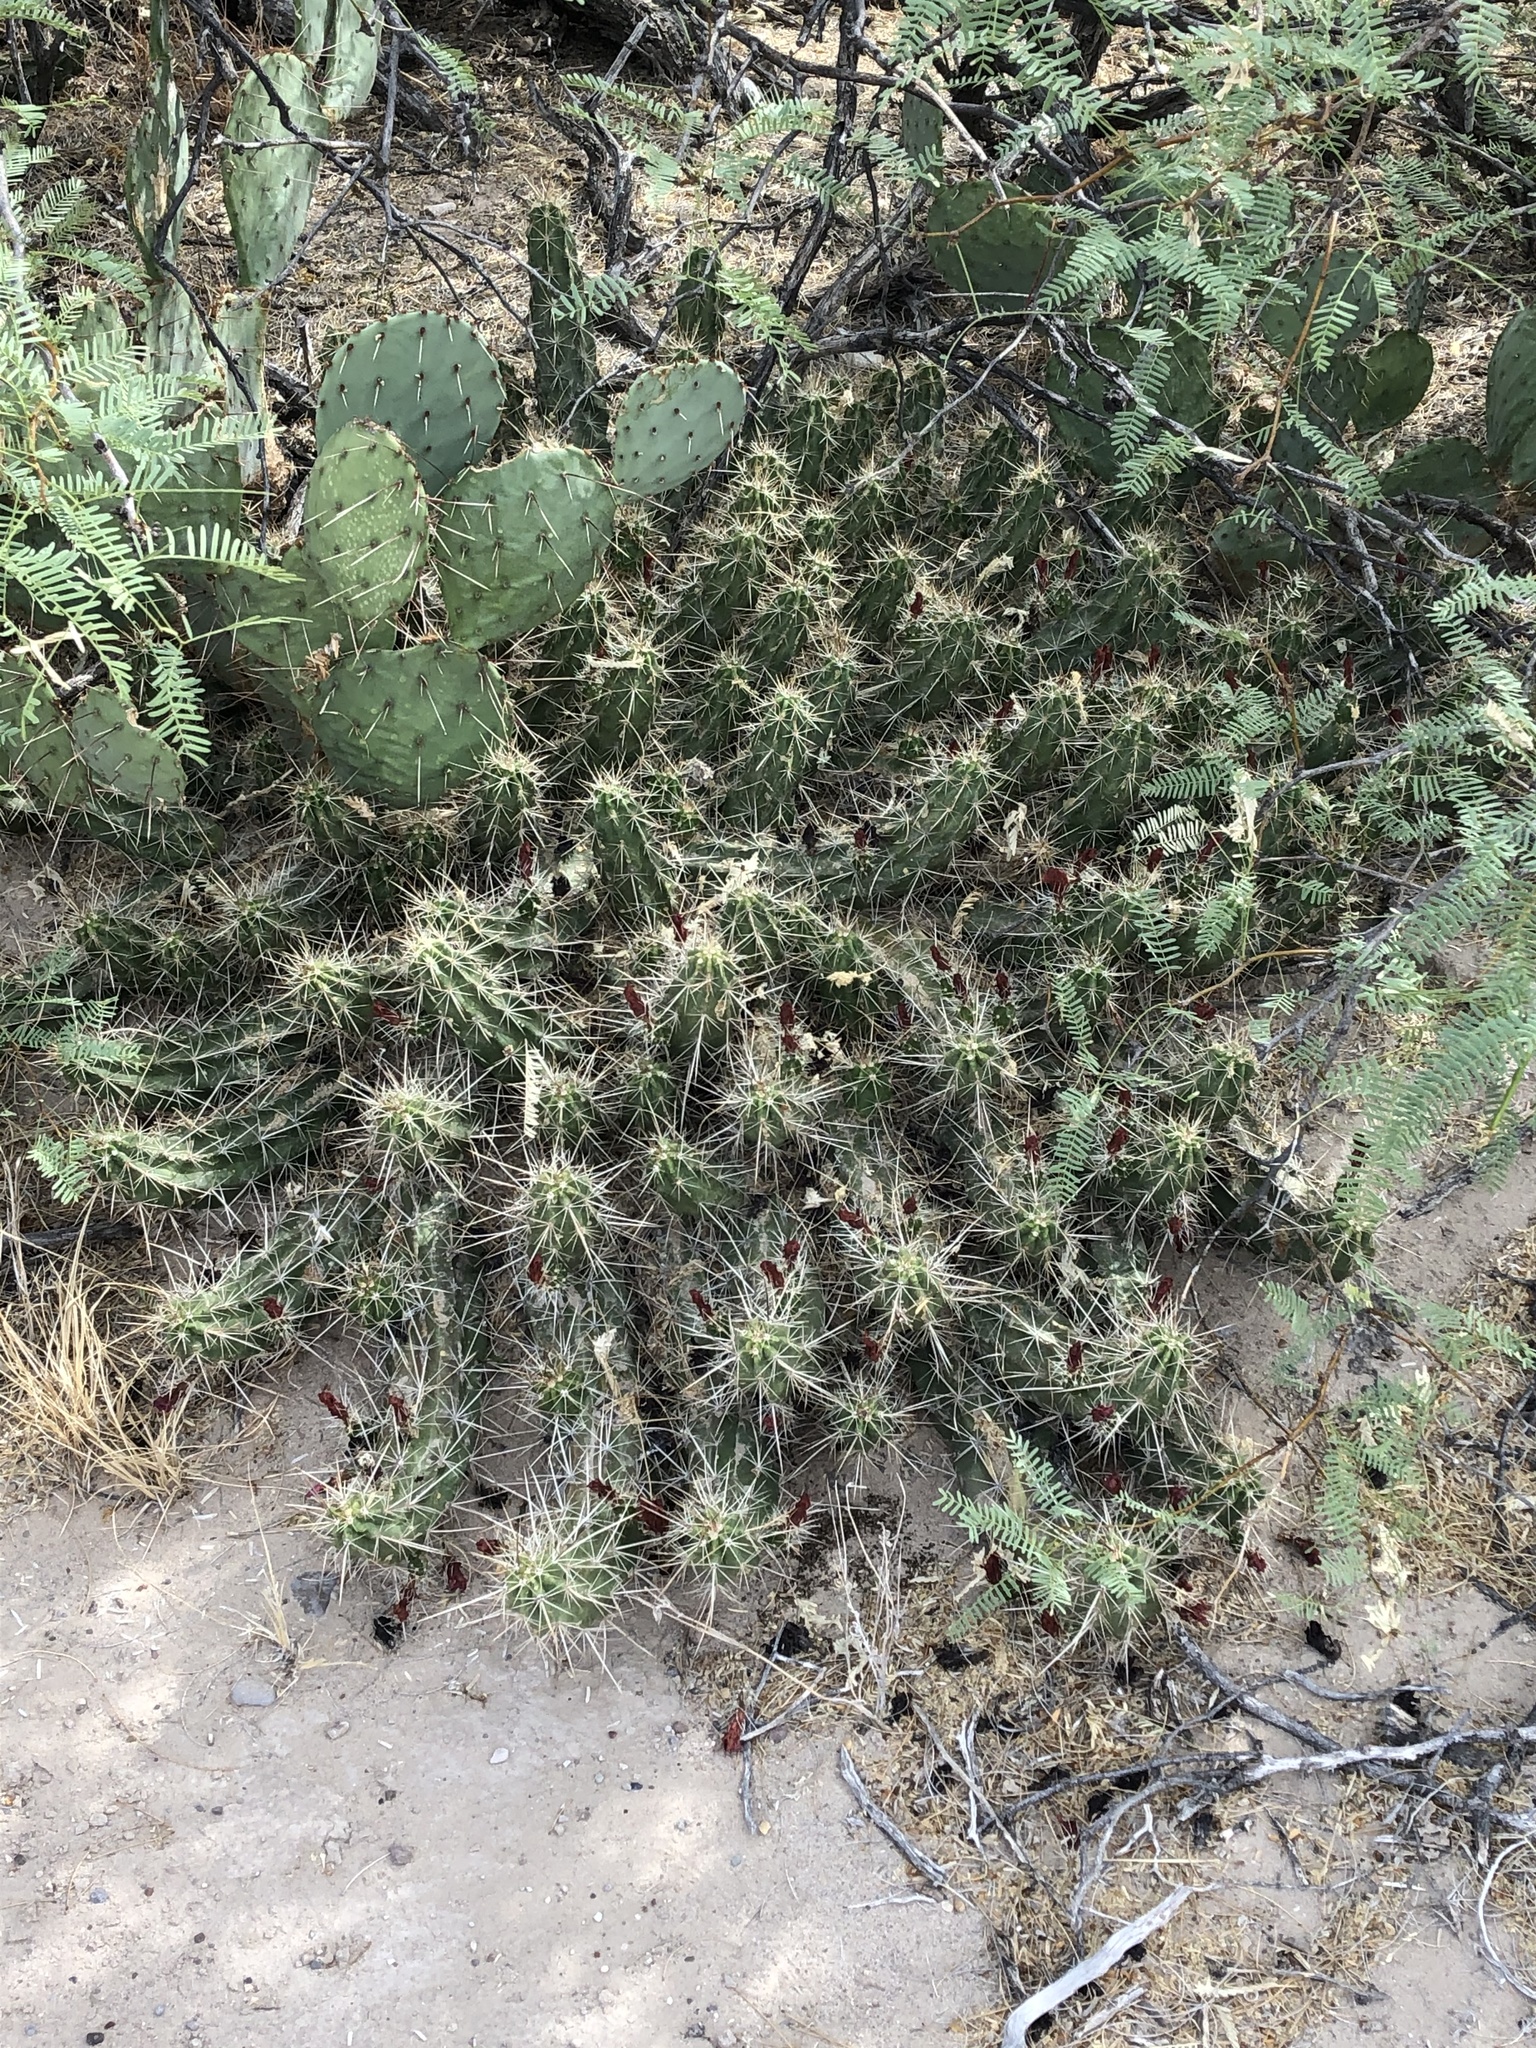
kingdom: Plantae
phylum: Tracheophyta
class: Magnoliopsida
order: Caryophyllales
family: Cactaceae
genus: Echinocereus
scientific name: Echinocereus enneacanthus
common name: Pitaya
